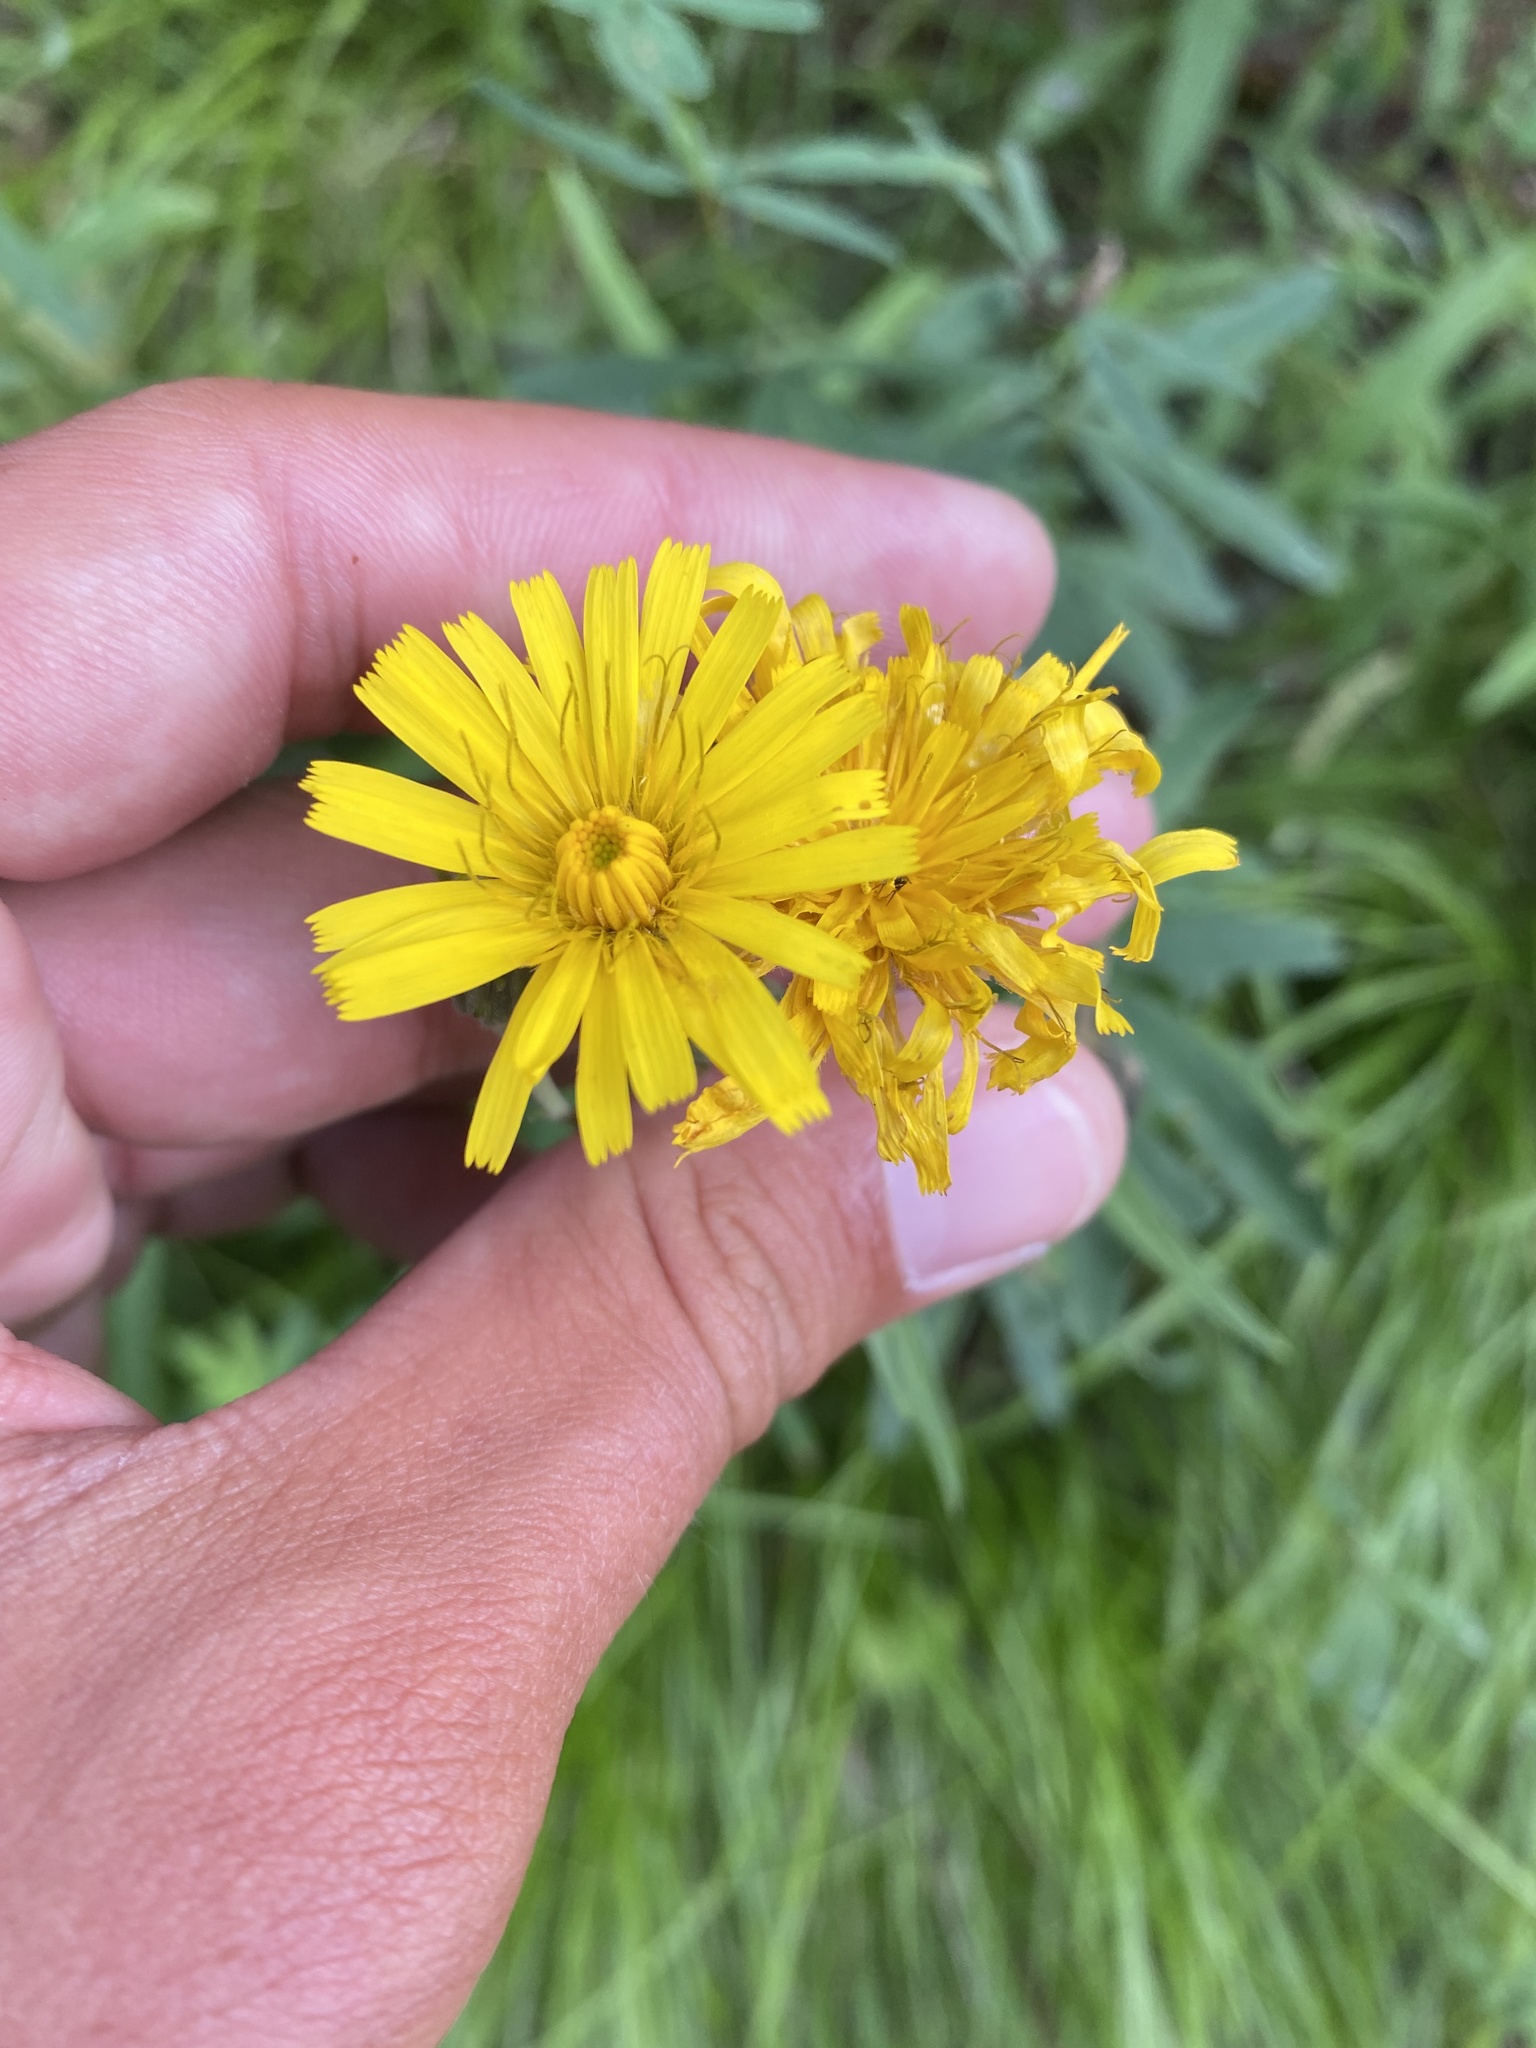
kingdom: Plantae
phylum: Tracheophyta
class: Magnoliopsida
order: Asterales
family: Asteraceae
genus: Hieracium
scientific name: Hieracium umbellatum
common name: Northern hawkweed
